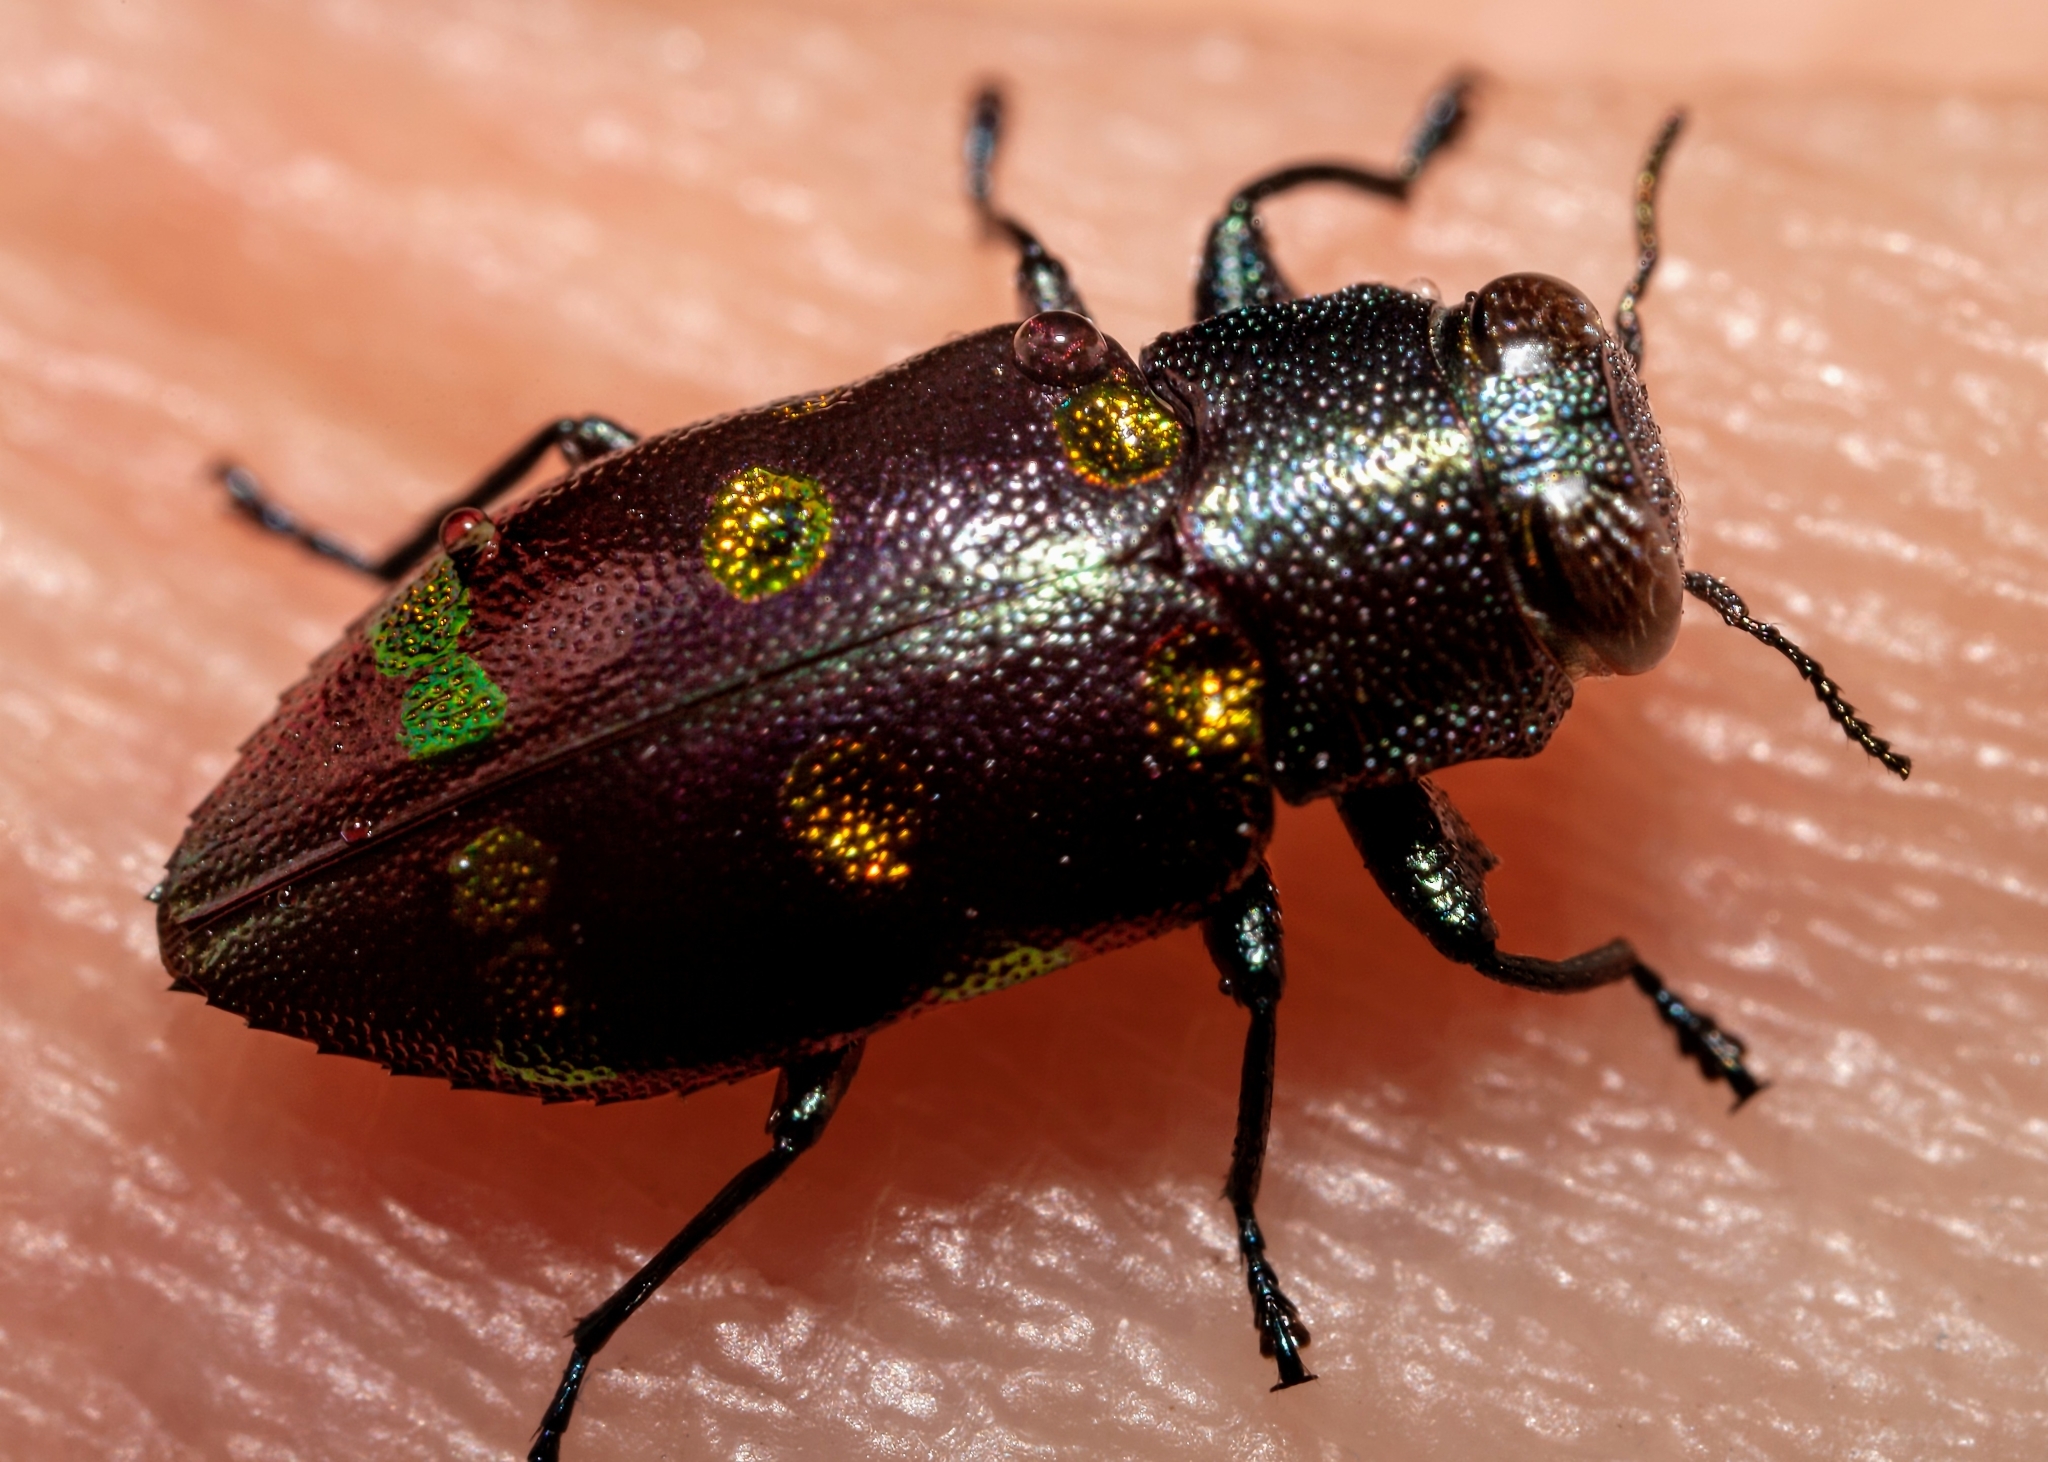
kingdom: Animalia
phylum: Arthropoda
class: Insecta
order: Coleoptera
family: Buprestidae
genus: Chrysobothris
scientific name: Chrysobothris chrysoela
